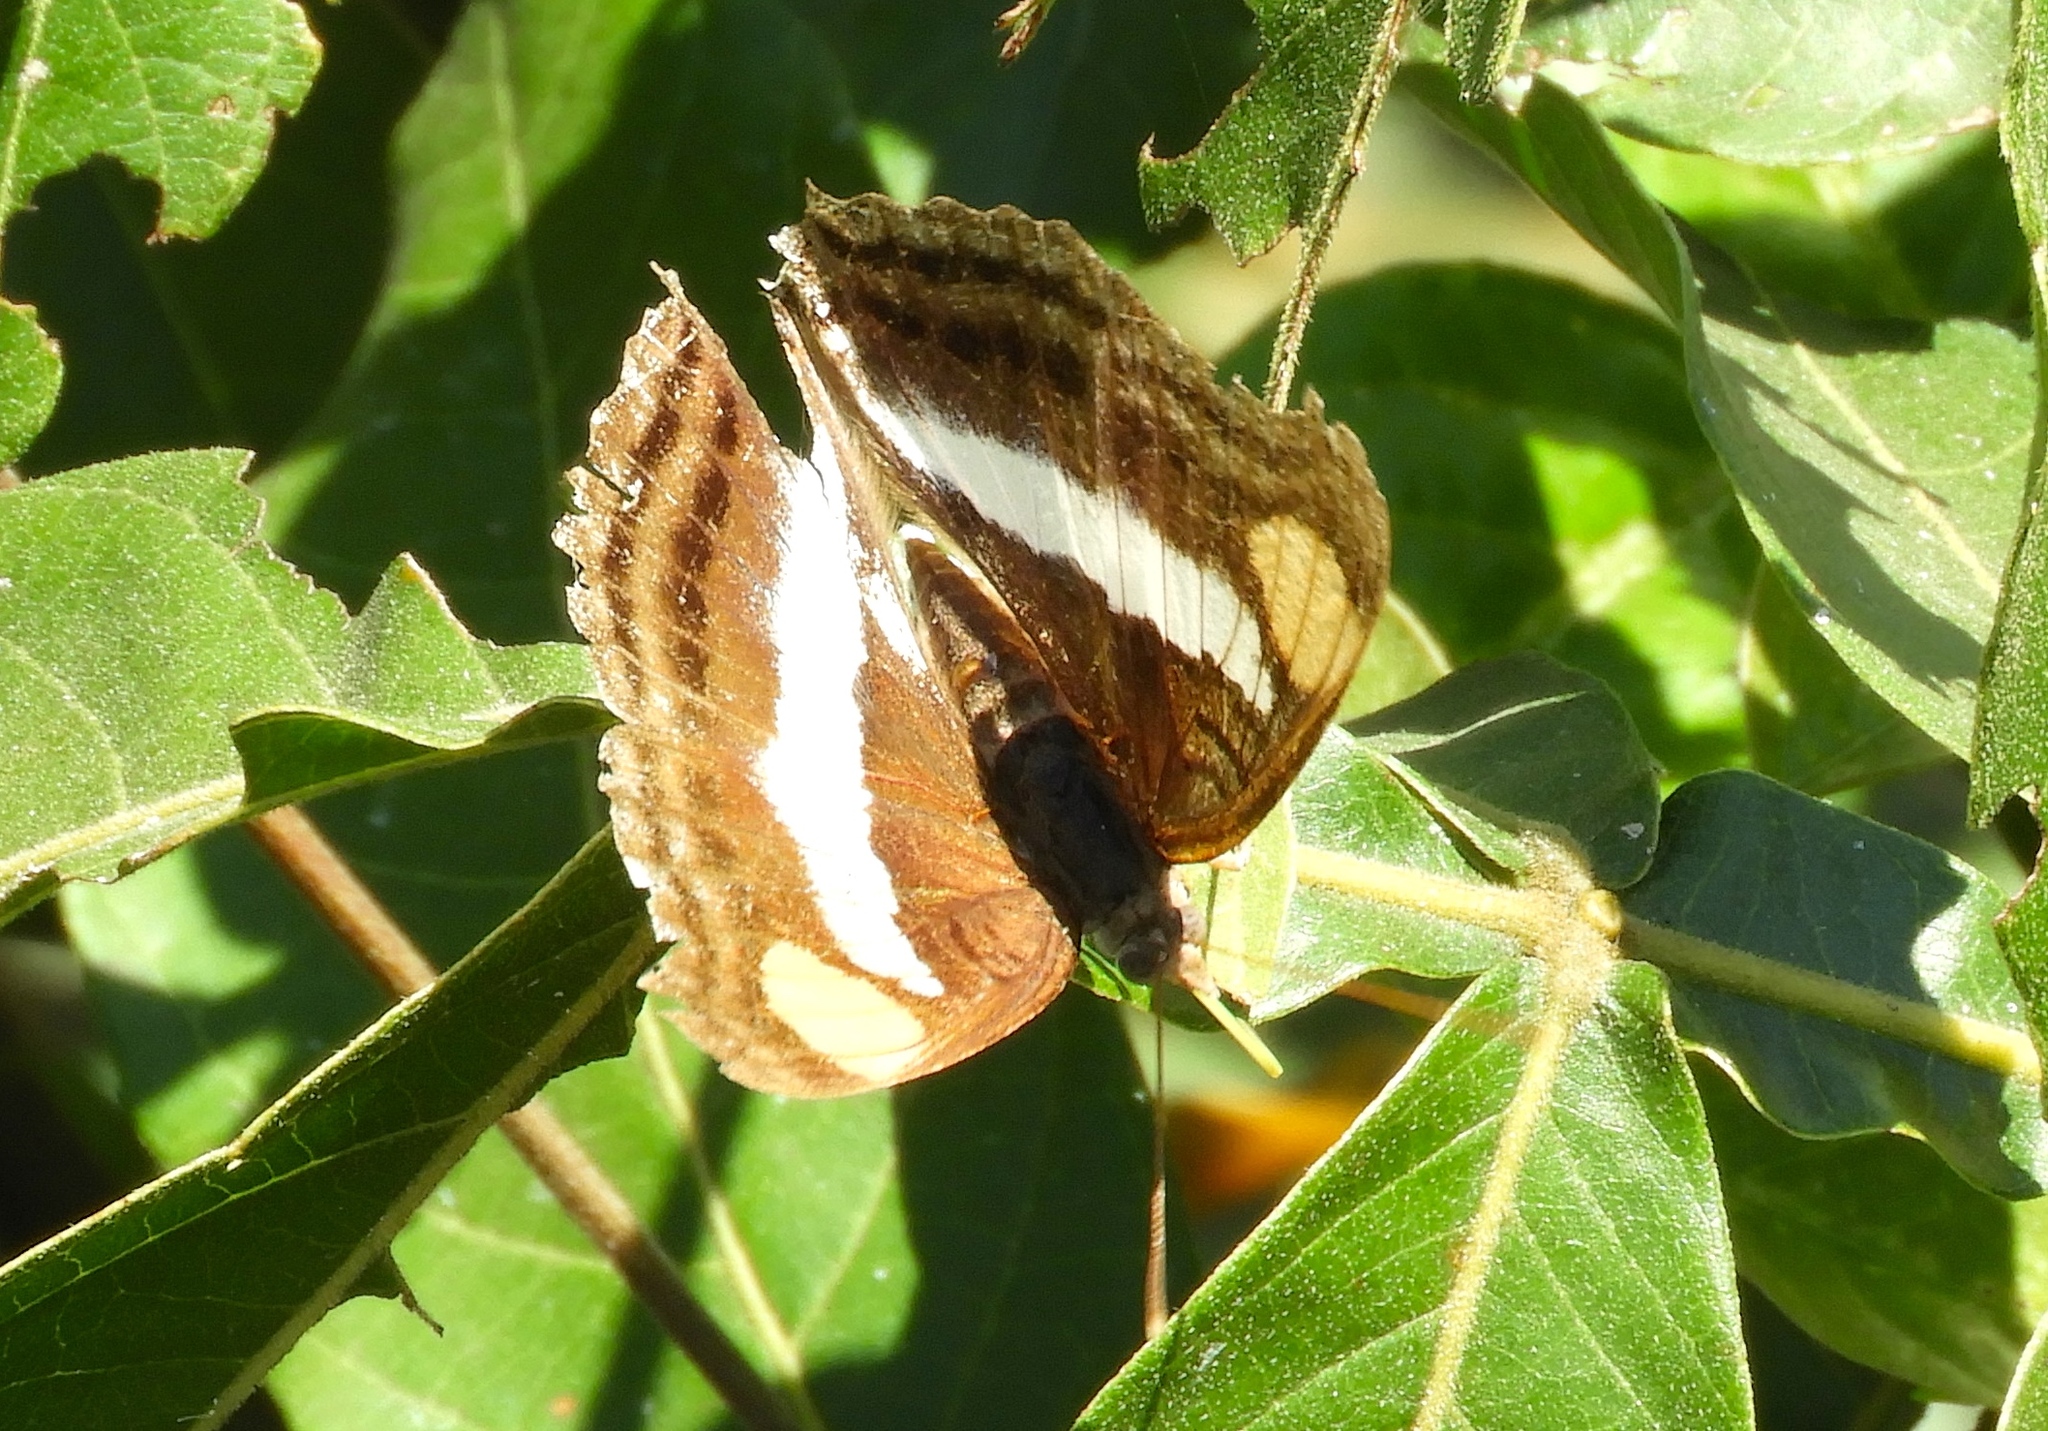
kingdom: Animalia
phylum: Arthropoda
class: Insecta
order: Lepidoptera
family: Nymphalidae
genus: Doxocopa
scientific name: Doxocopa laure
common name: Silver emperor
